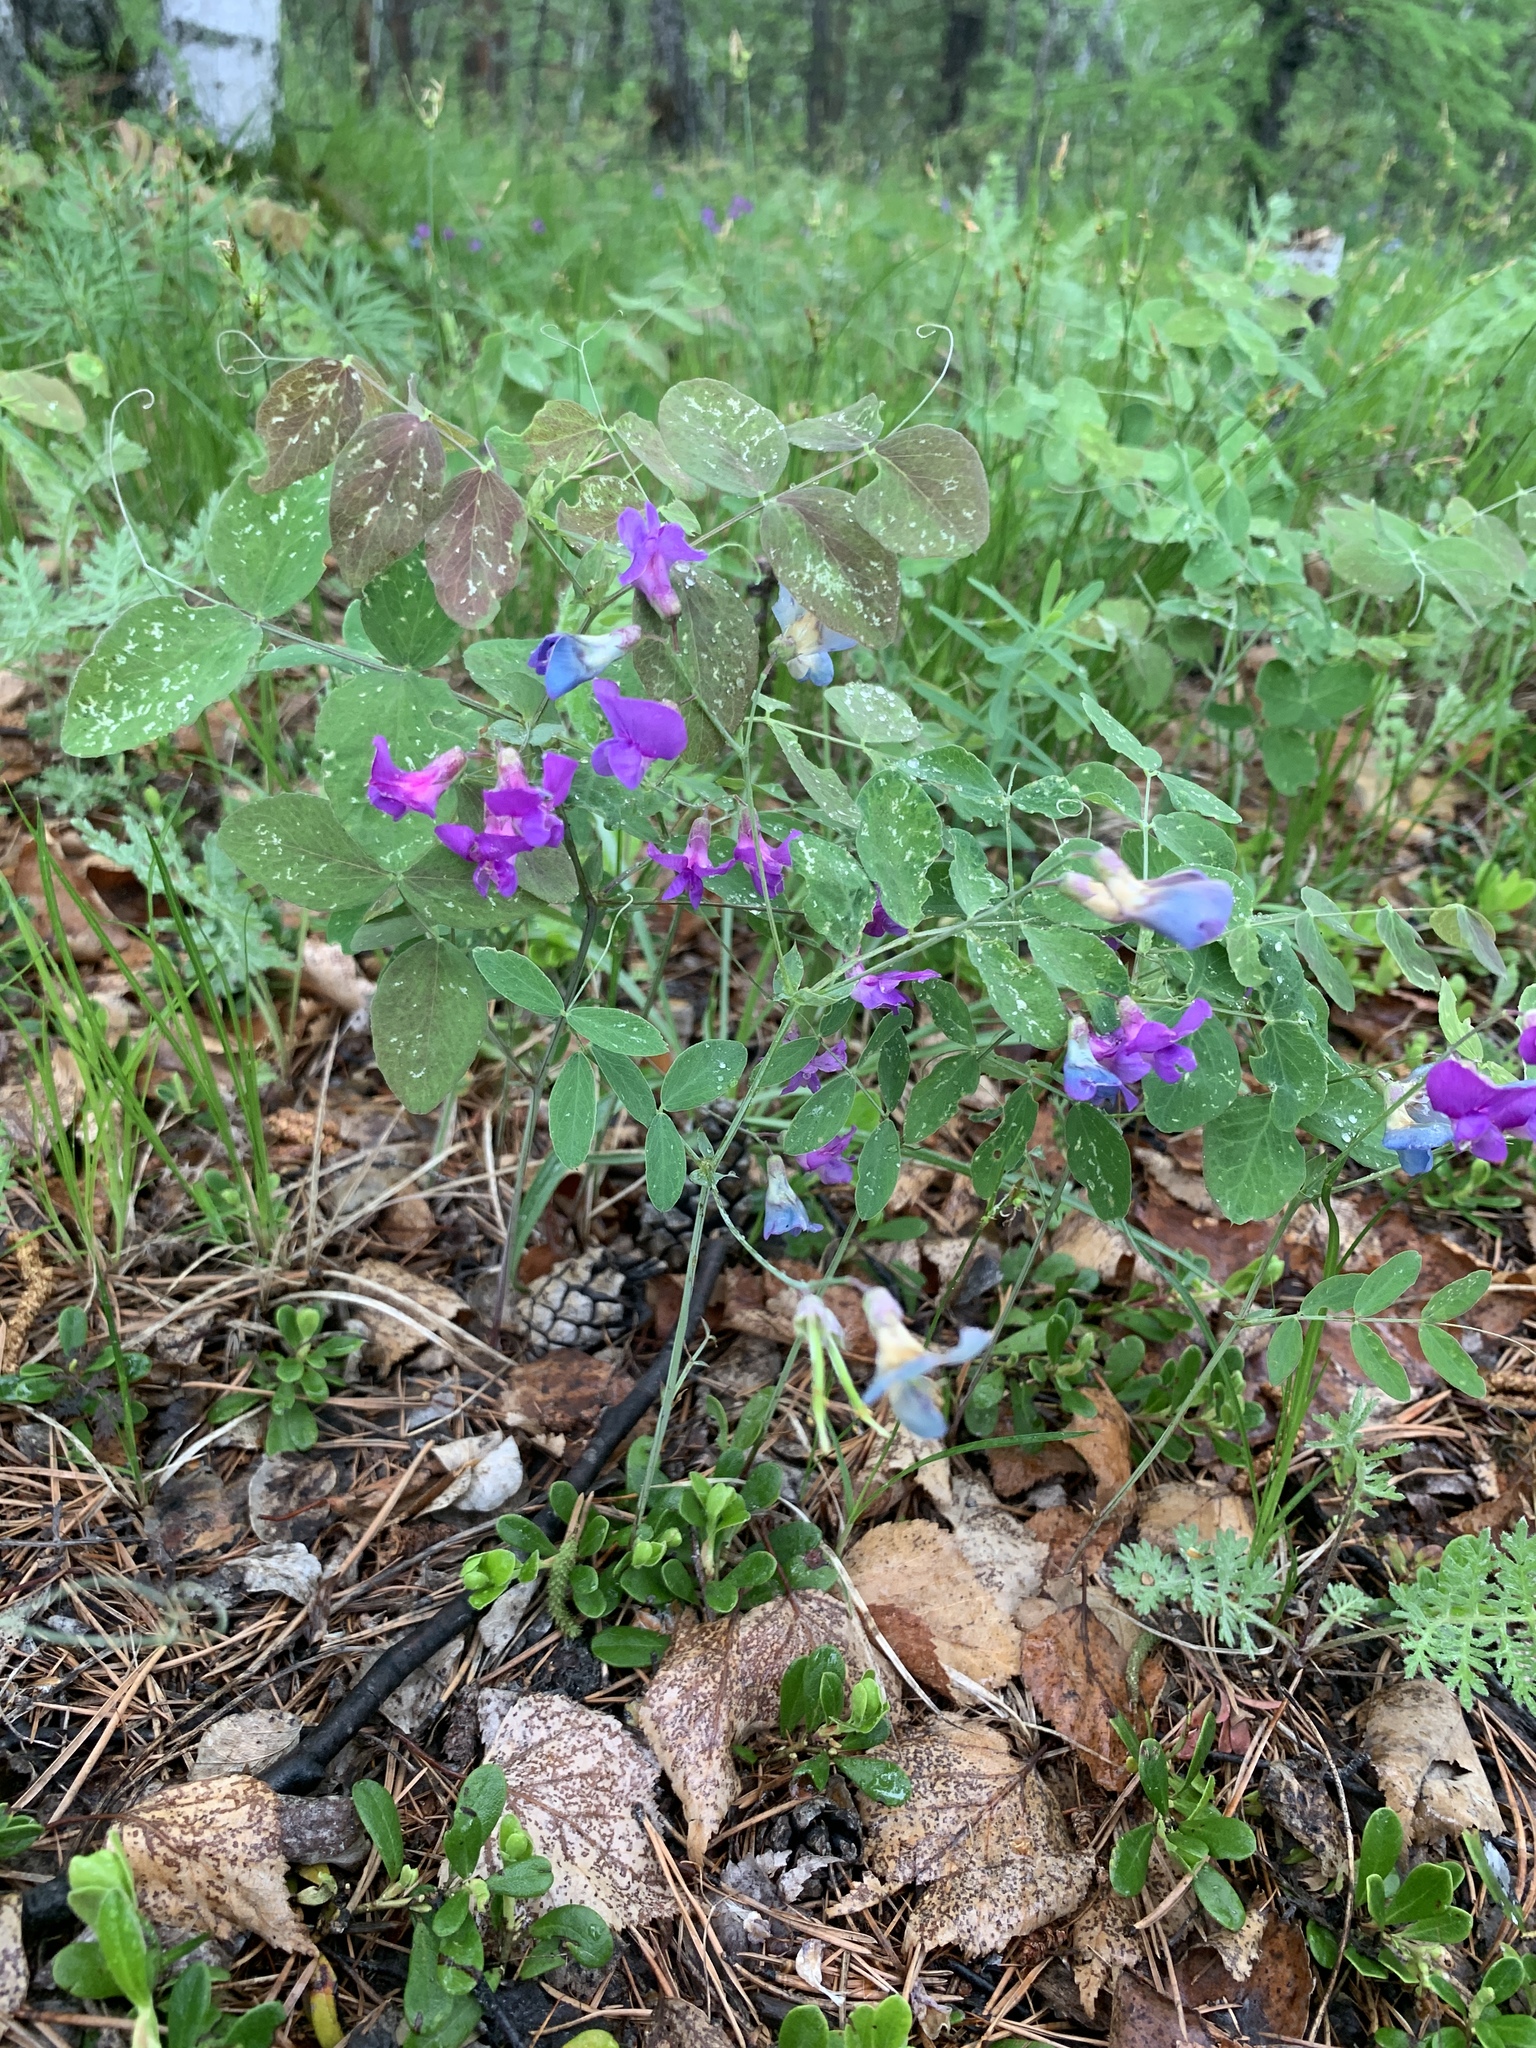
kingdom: Plantae
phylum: Tracheophyta
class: Magnoliopsida
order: Fabales
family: Fabaceae
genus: Lathyrus
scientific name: Lathyrus humilis
